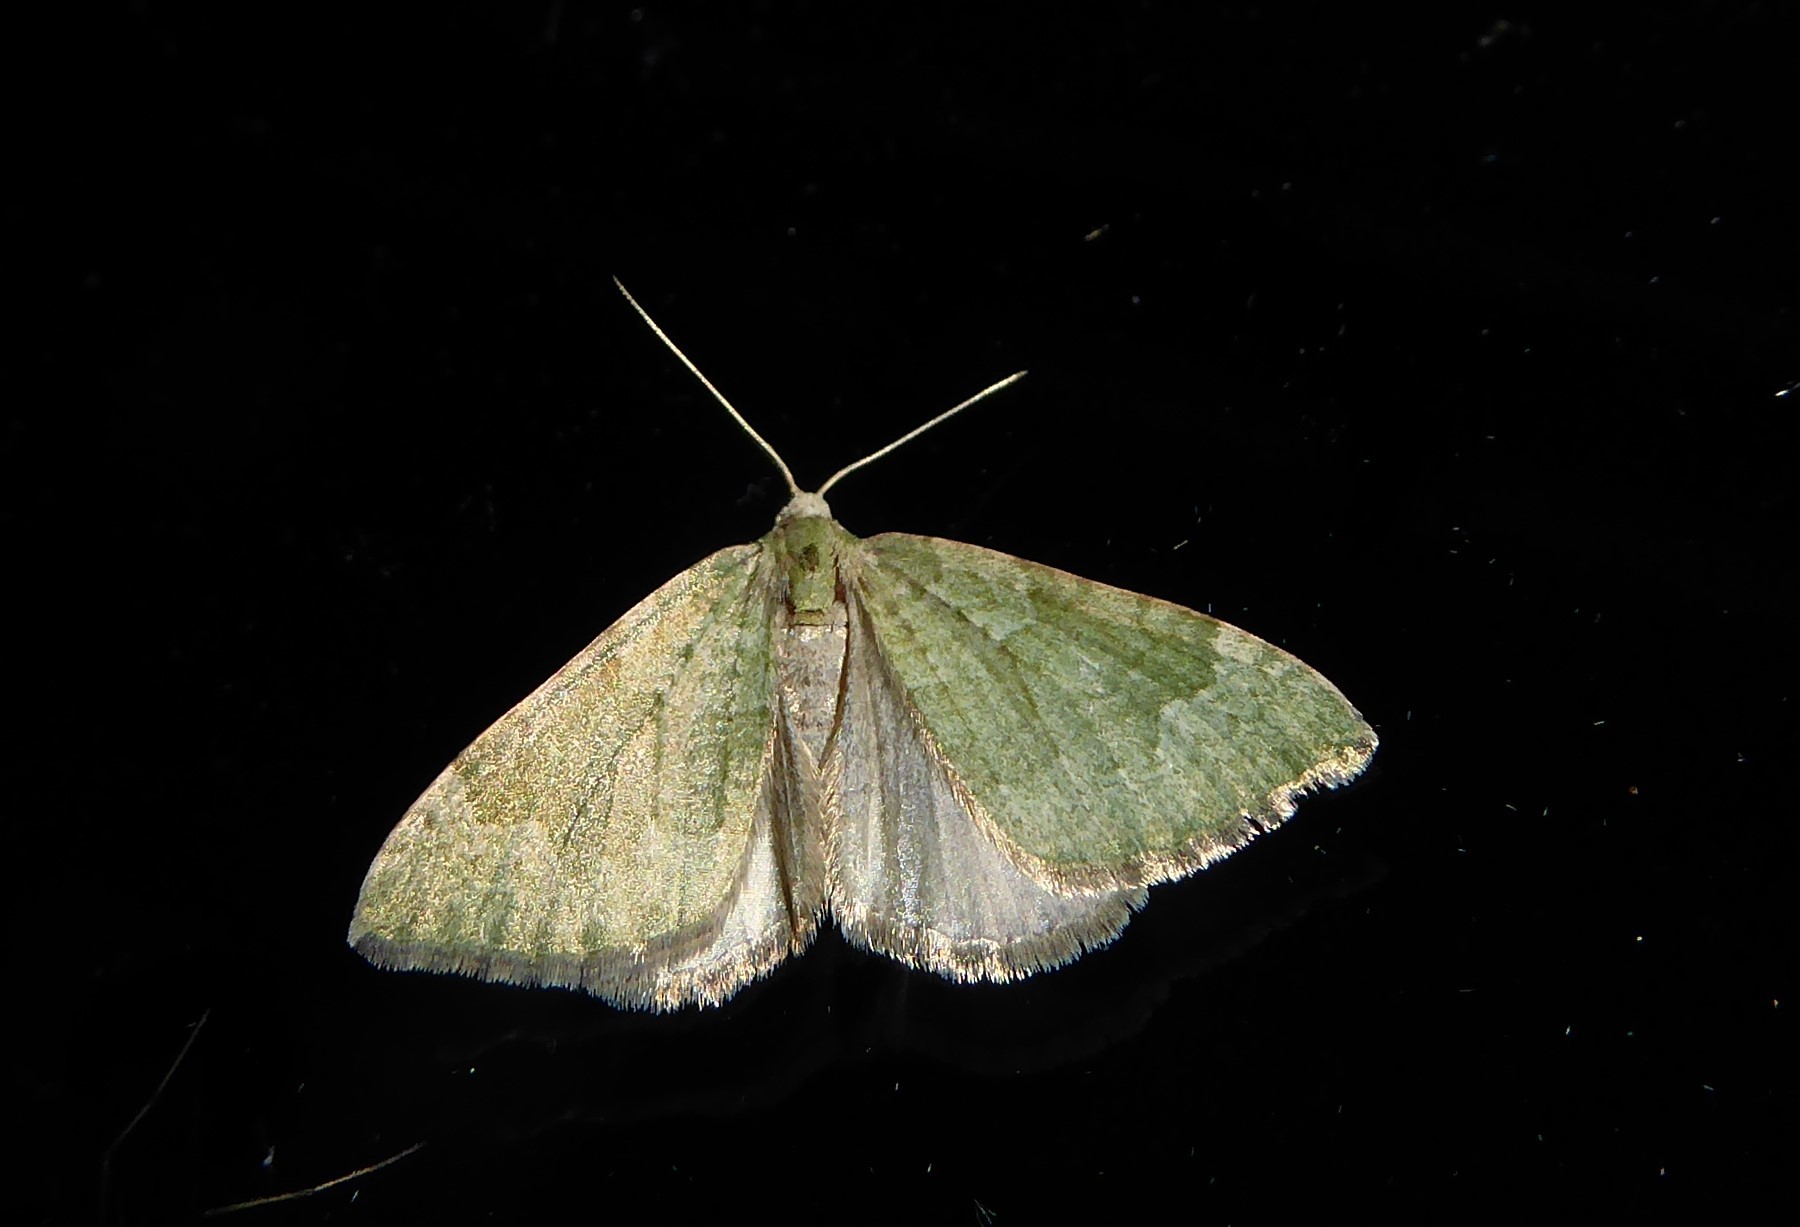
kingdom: Animalia
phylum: Arthropoda
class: Insecta
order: Lepidoptera
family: Geometridae
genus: Epyaxa
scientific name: Epyaxa rosearia
